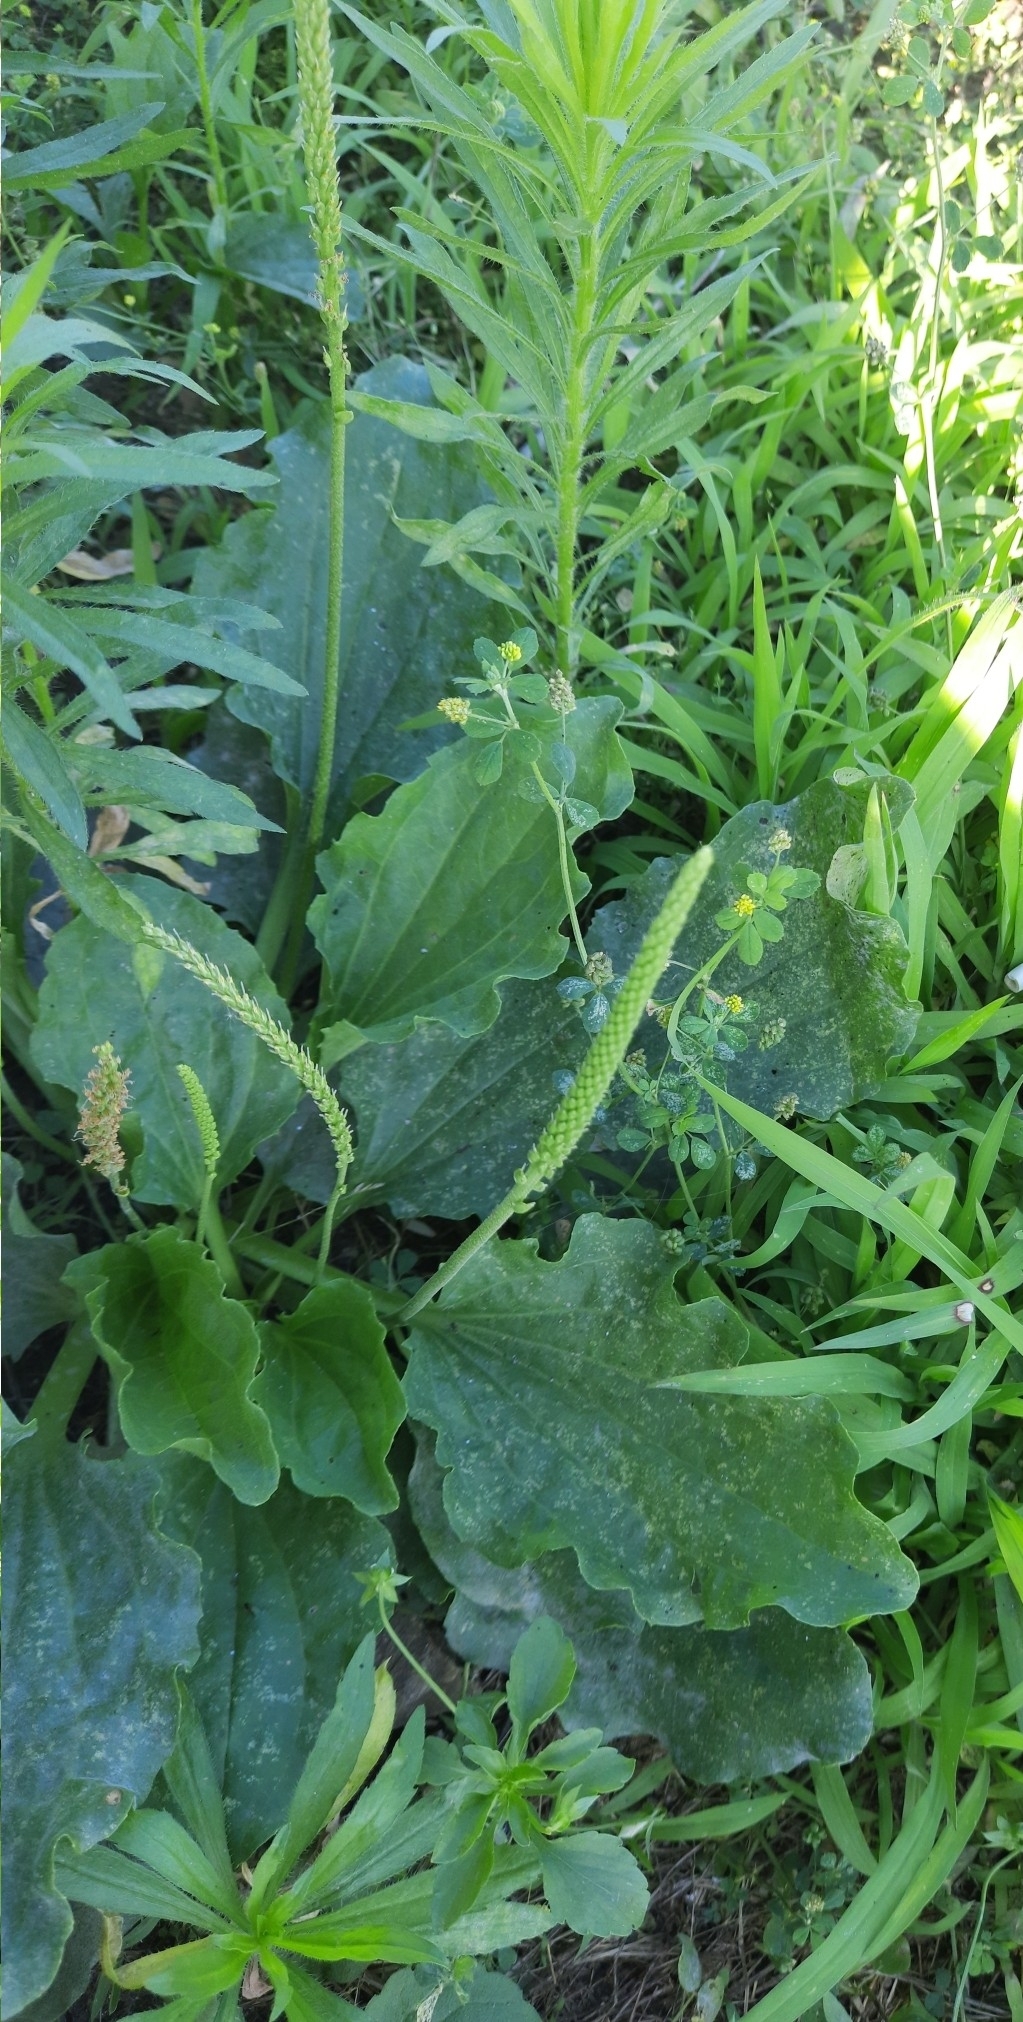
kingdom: Plantae
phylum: Tracheophyta
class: Magnoliopsida
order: Lamiales
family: Plantaginaceae
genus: Plantago
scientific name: Plantago major
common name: Common plantain
